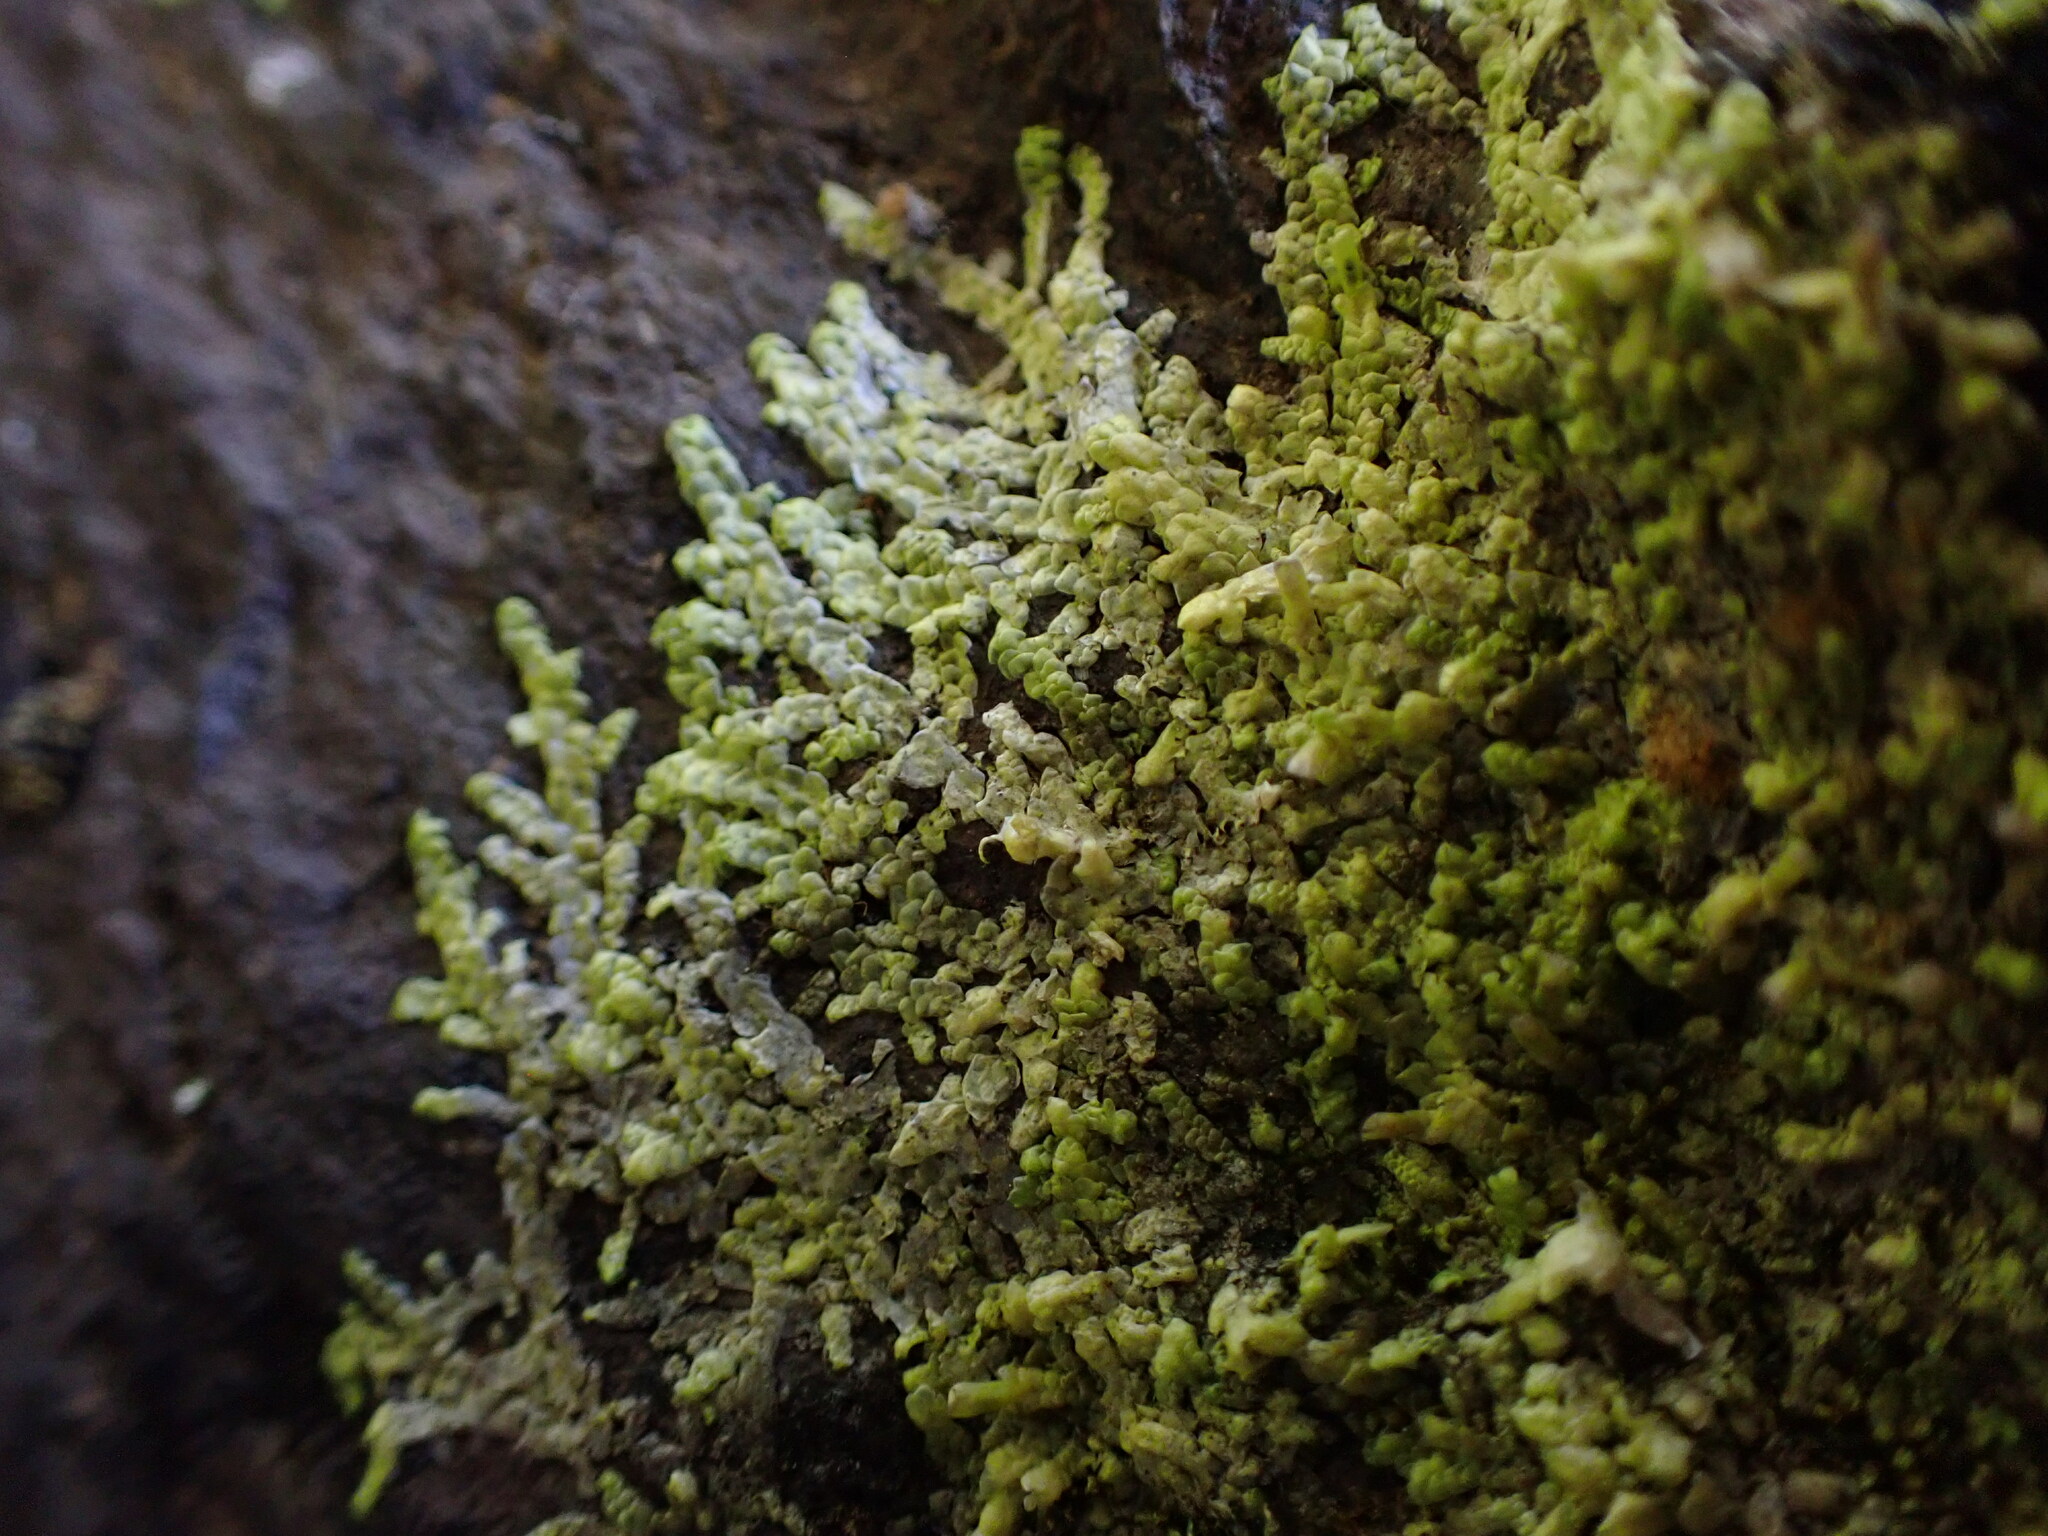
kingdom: Plantae
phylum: Marchantiophyta
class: Jungermanniopsida
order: Porellales
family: Radulaceae
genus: Radula
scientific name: Radula complanata
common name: Flat-leaved scalewort
